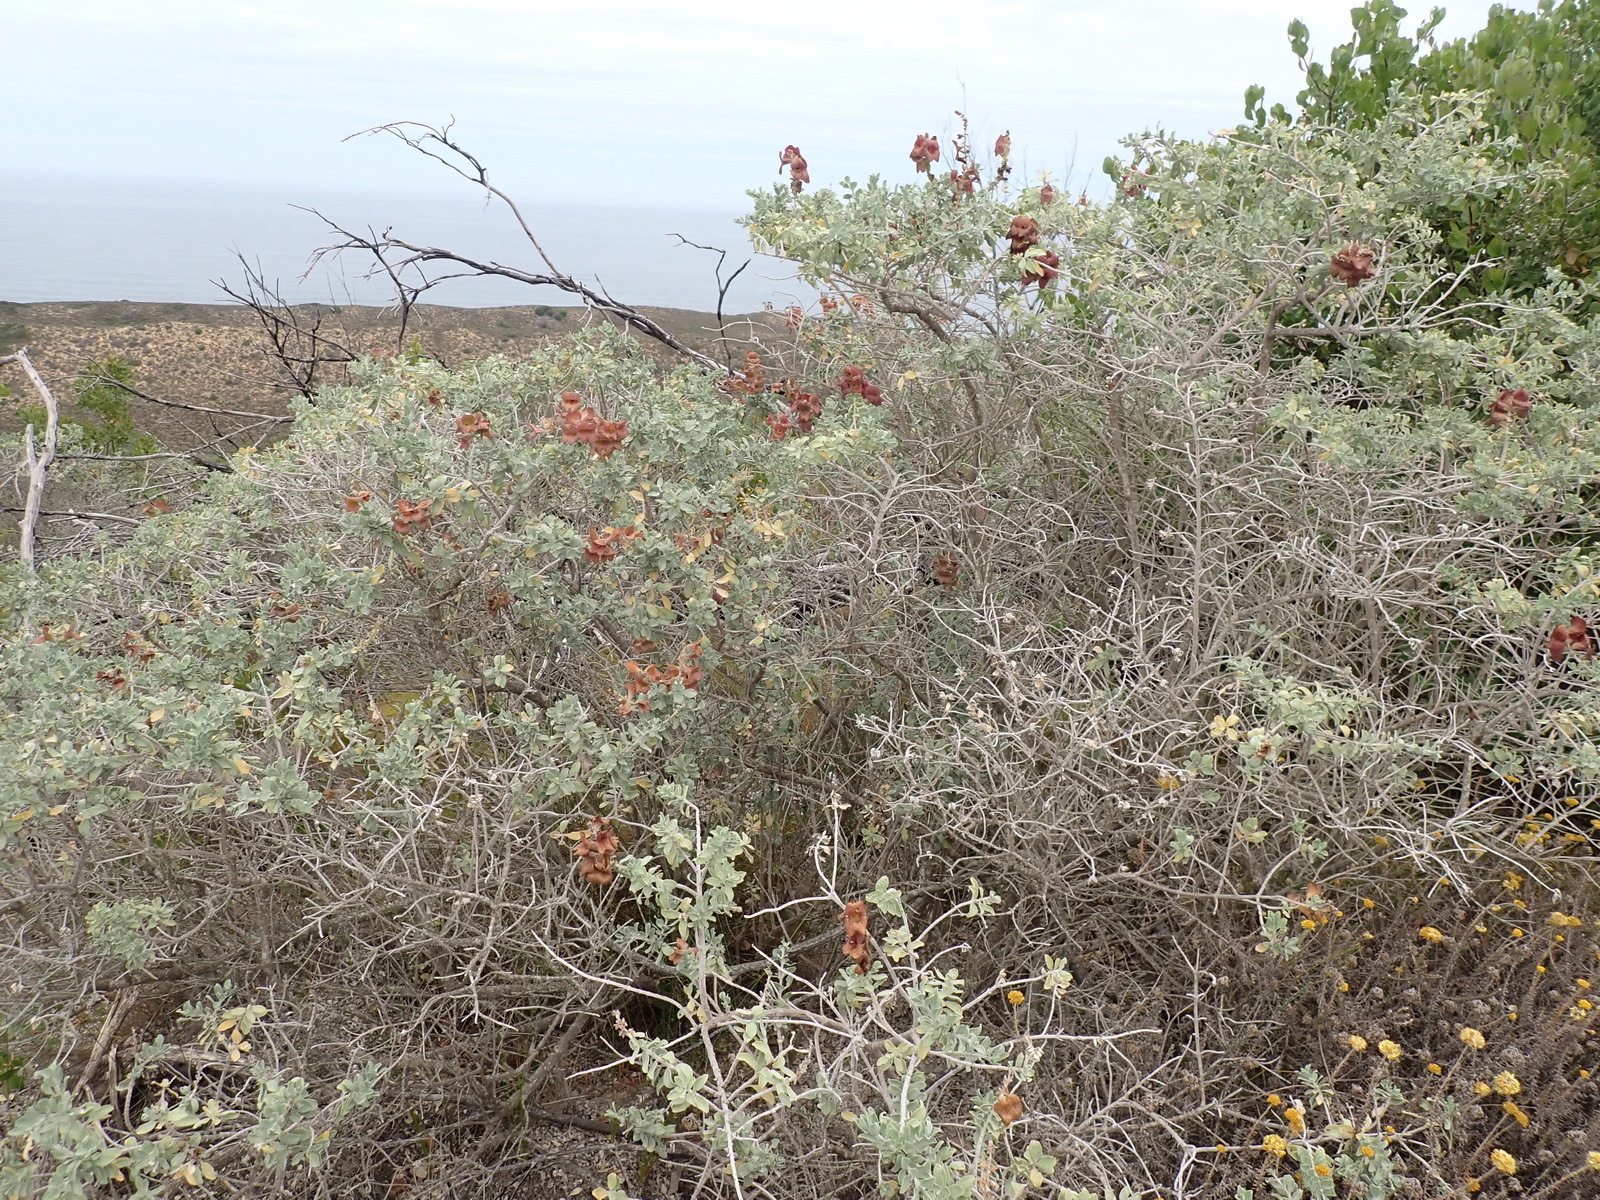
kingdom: Plantae
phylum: Tracheophyta
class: Magnoliopsida
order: Lamiales
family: Lamiaceae
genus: Salvia
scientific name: Salvia aurea
